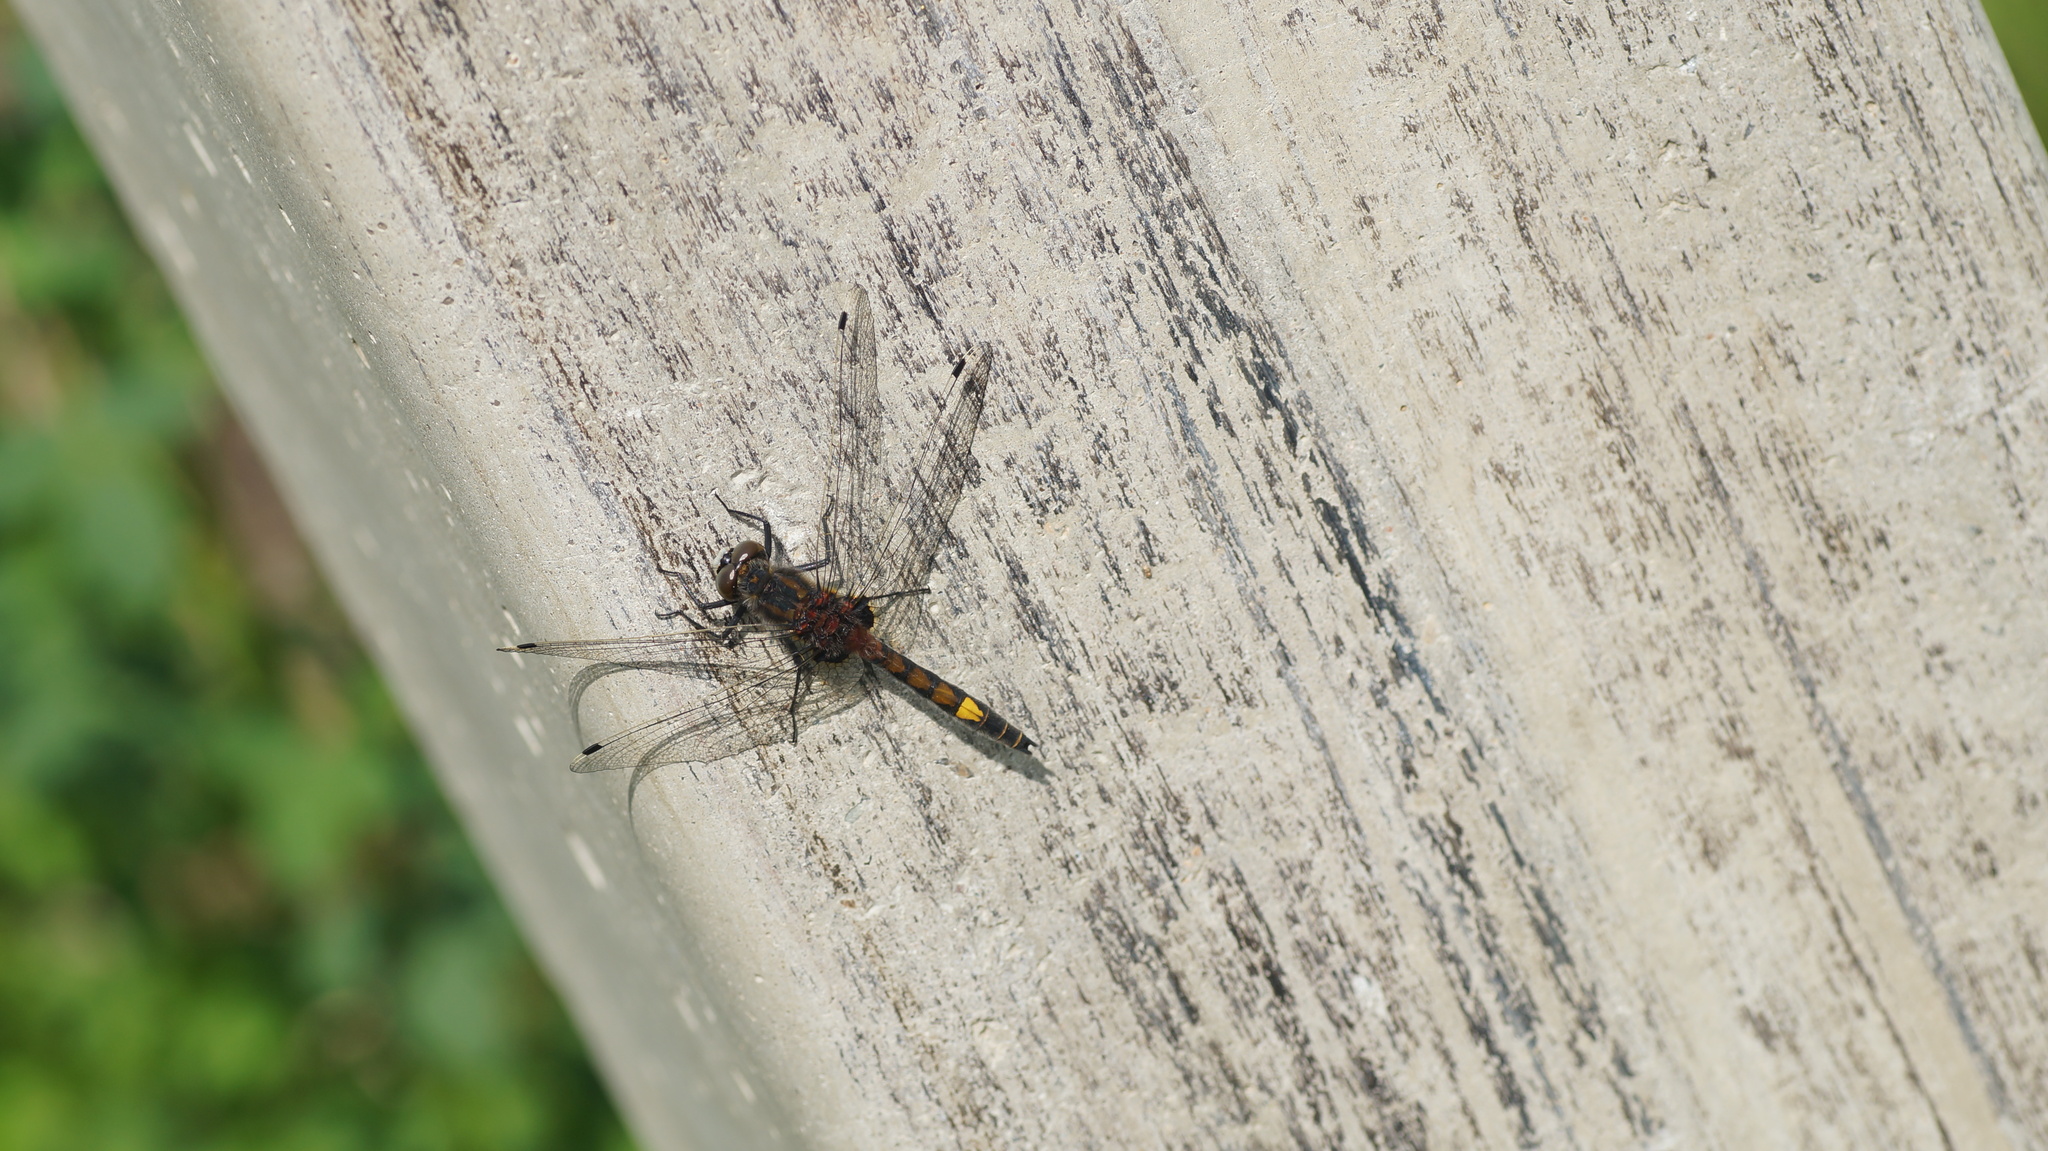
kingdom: Animalia
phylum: Arthropoda
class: Insecta
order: Odonata
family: Libellulidae
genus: Leucorrhinia
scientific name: Leucorrhinia pectoralis
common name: Yellow-spotted whiteface
